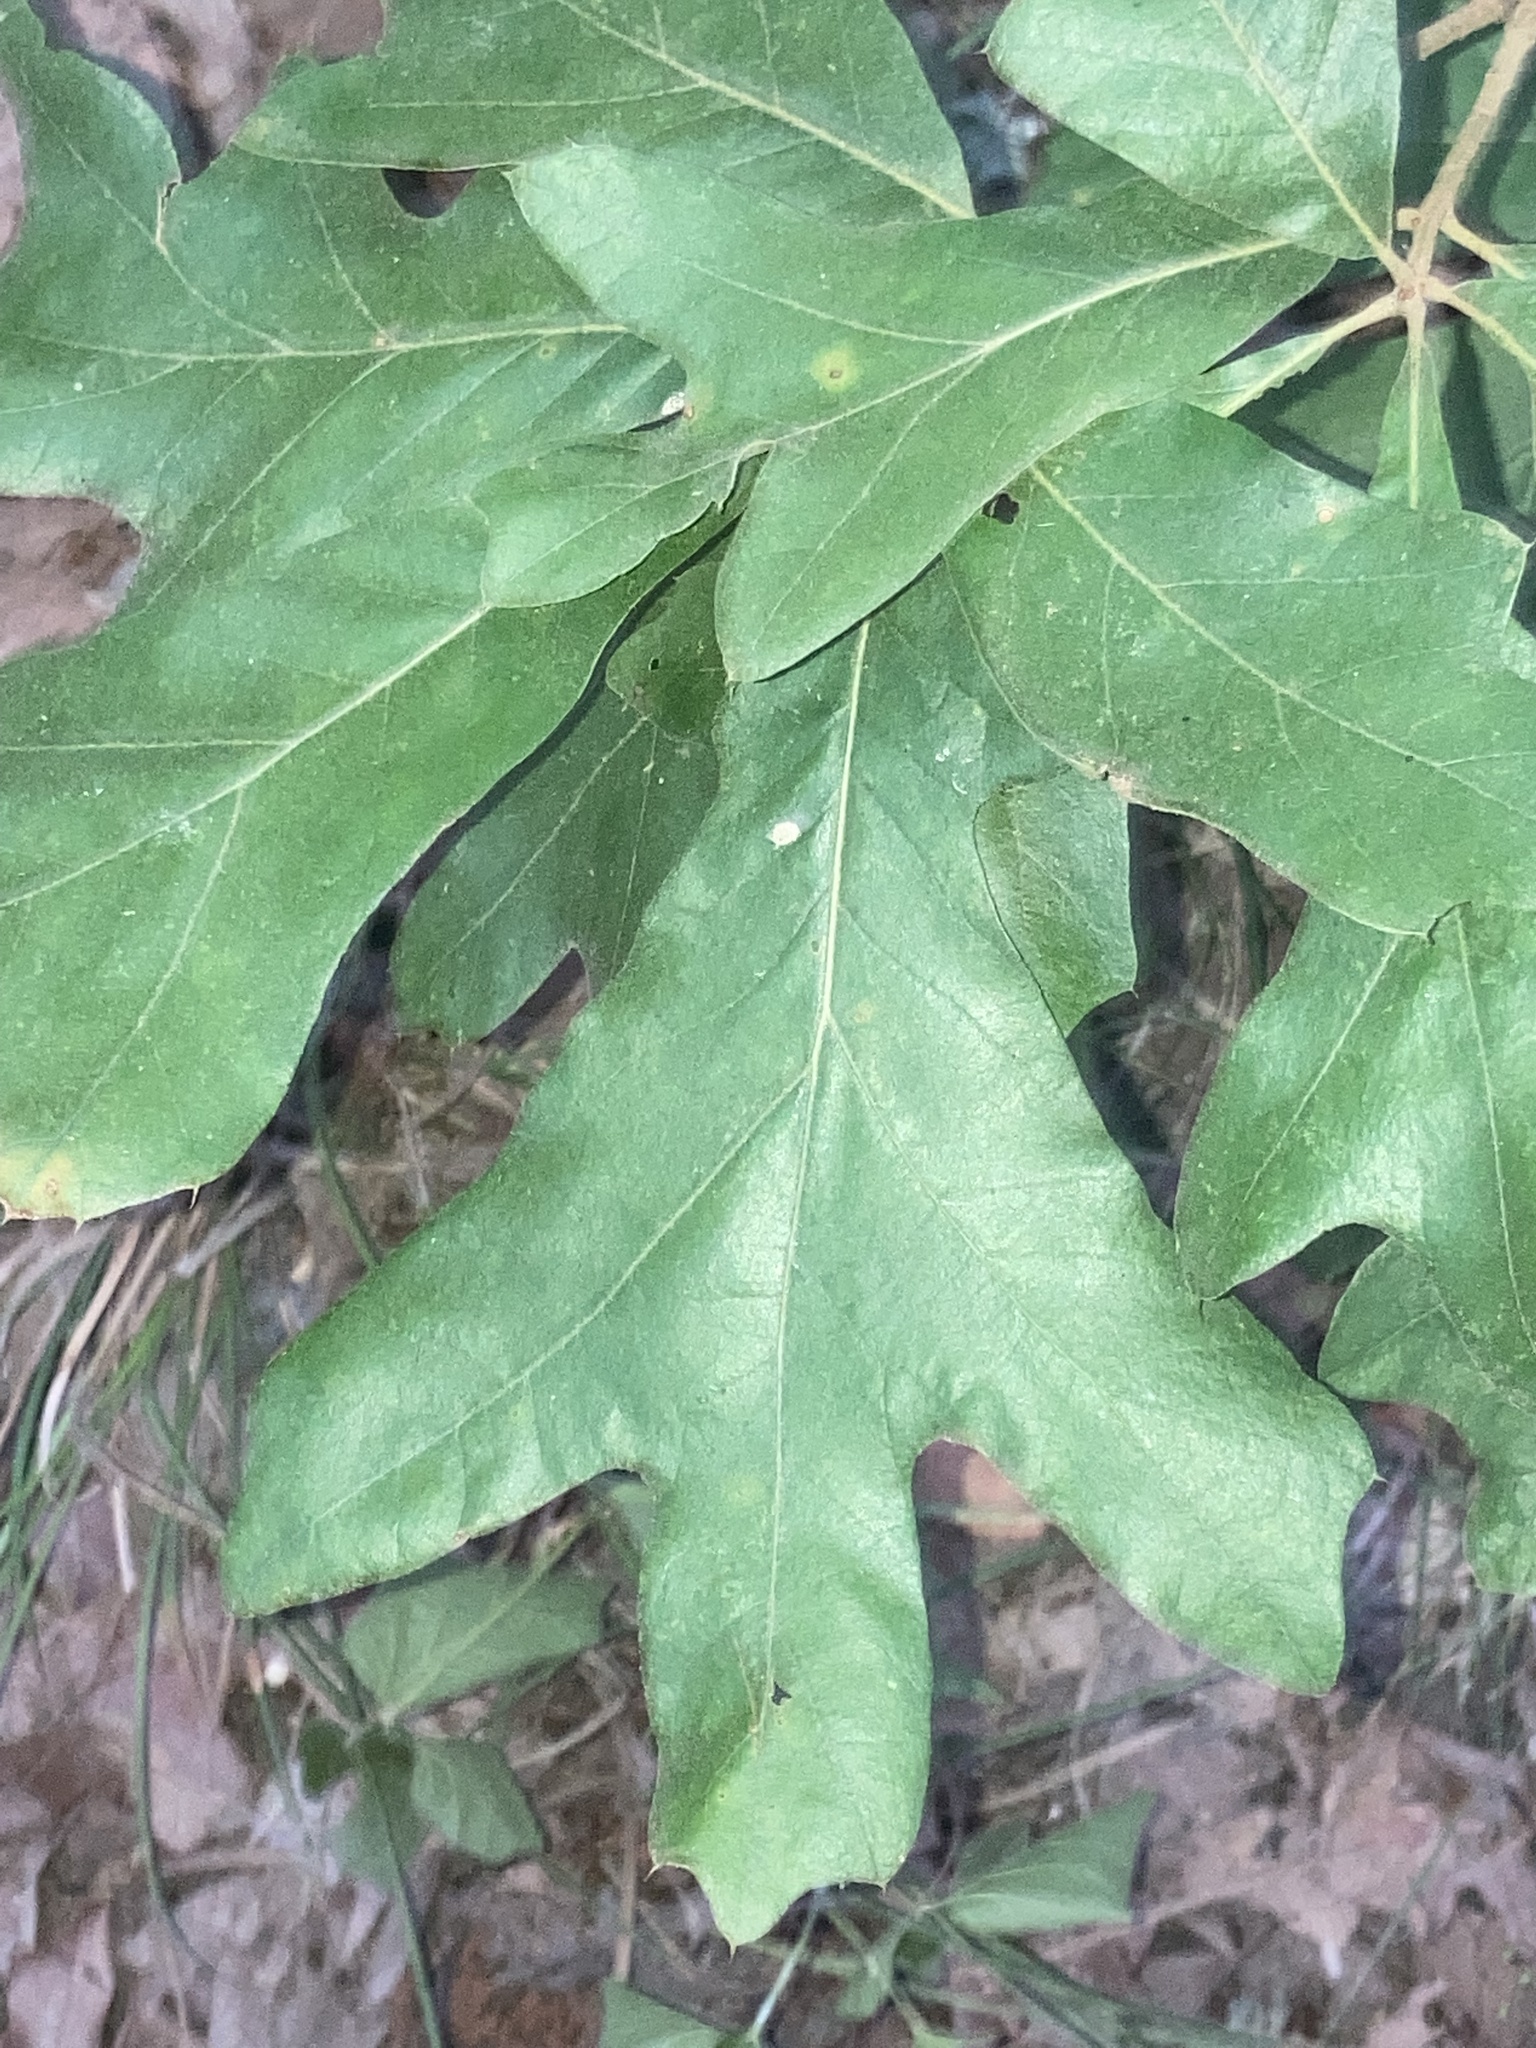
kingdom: Plantae
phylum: Tracheophyta
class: Magnoliopsida
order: Fagales
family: Fagaceae
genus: Quercus
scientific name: Quercus falcata
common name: Southern red oak
